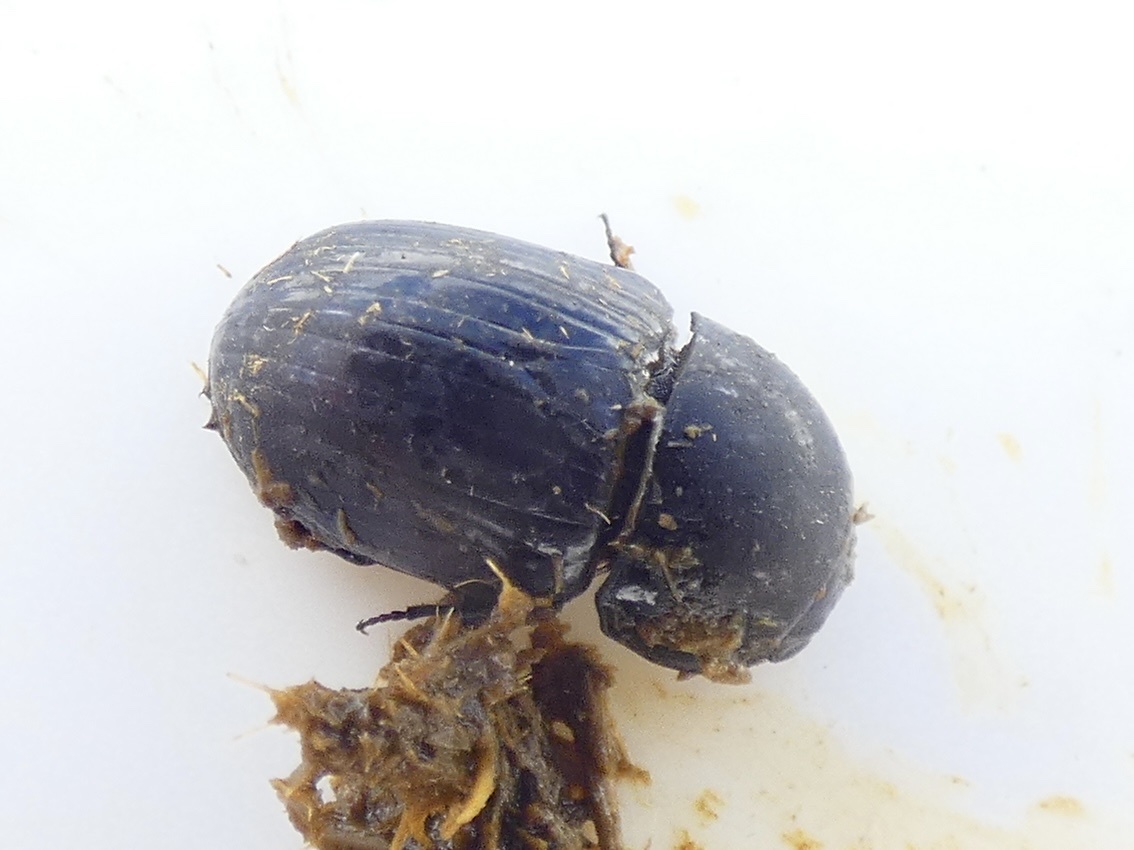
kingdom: Animalia
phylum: Arthropoda
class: Insecta
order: Coleoptera
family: Scarabaeidae
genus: Teuchestes
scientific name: Teuchestes fossor
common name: Digger small dung beetle
